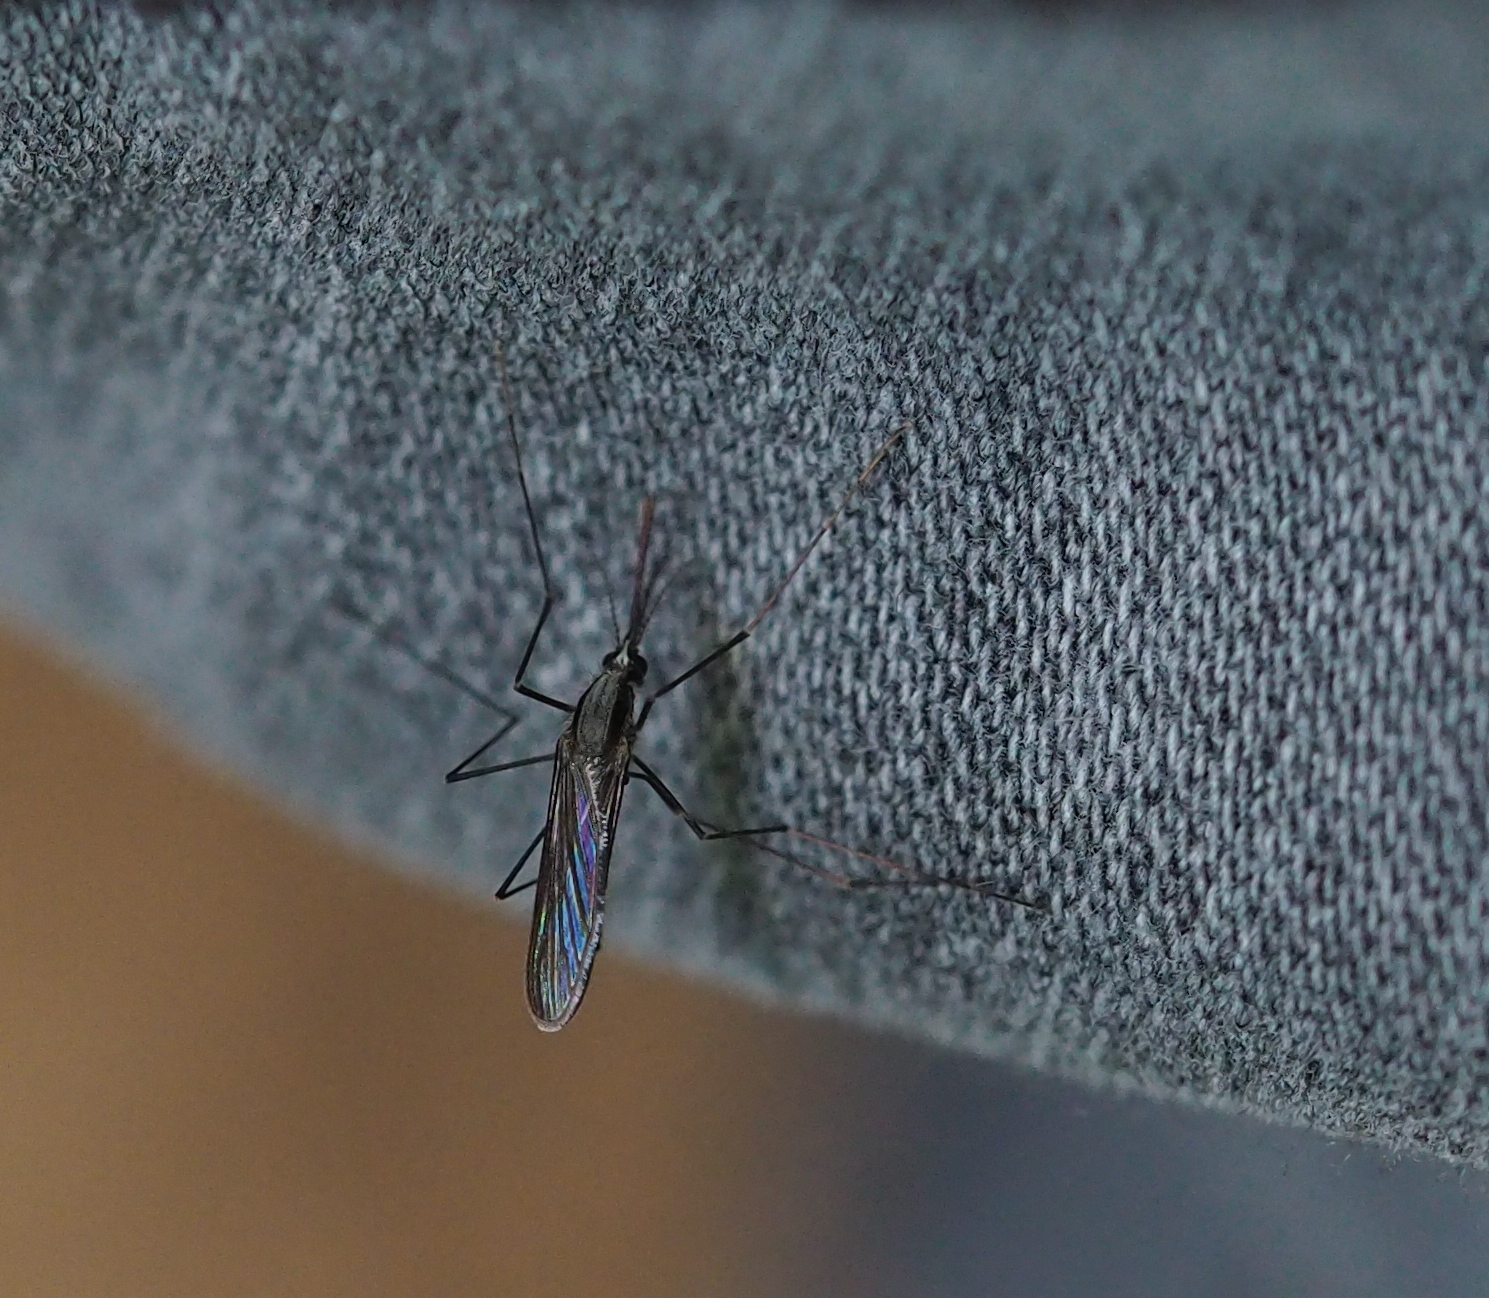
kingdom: Animalia
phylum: Arthropoda
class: Insecta
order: Diptera
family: Culicidae
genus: Anopheles
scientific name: Anopheles plumbeus
